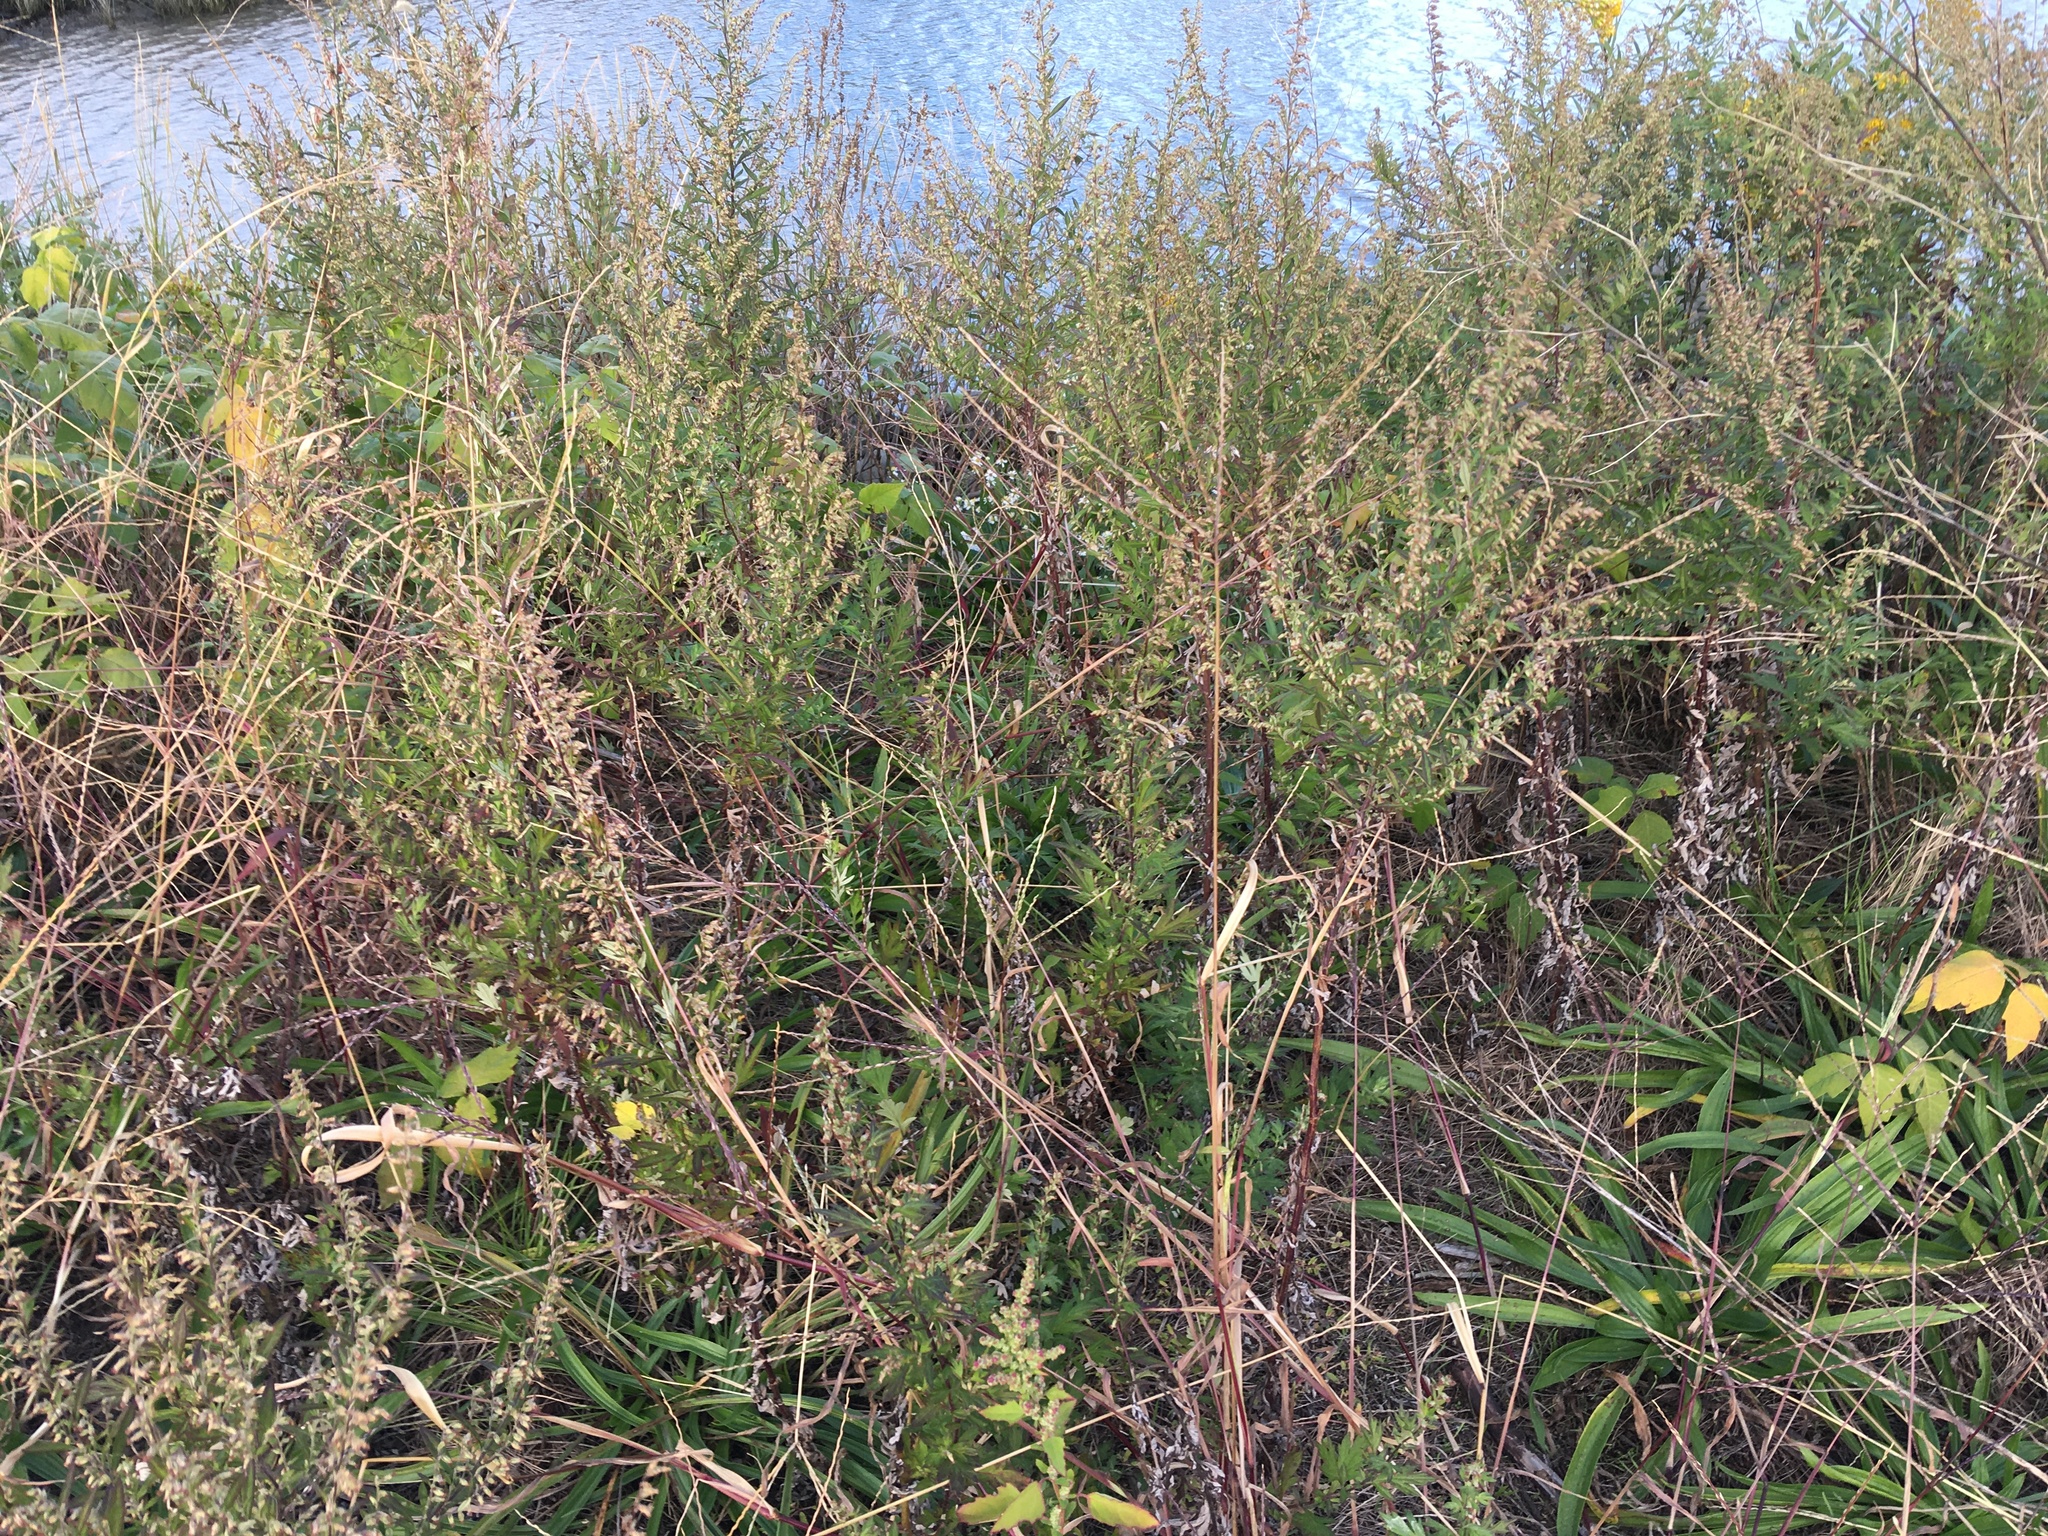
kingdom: Plantae
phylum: Tracheophyta
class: Magnoliopsida
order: Asterales
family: Asteraceae
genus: Artemisia
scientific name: Artemisia vulgaris
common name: Mugwort
